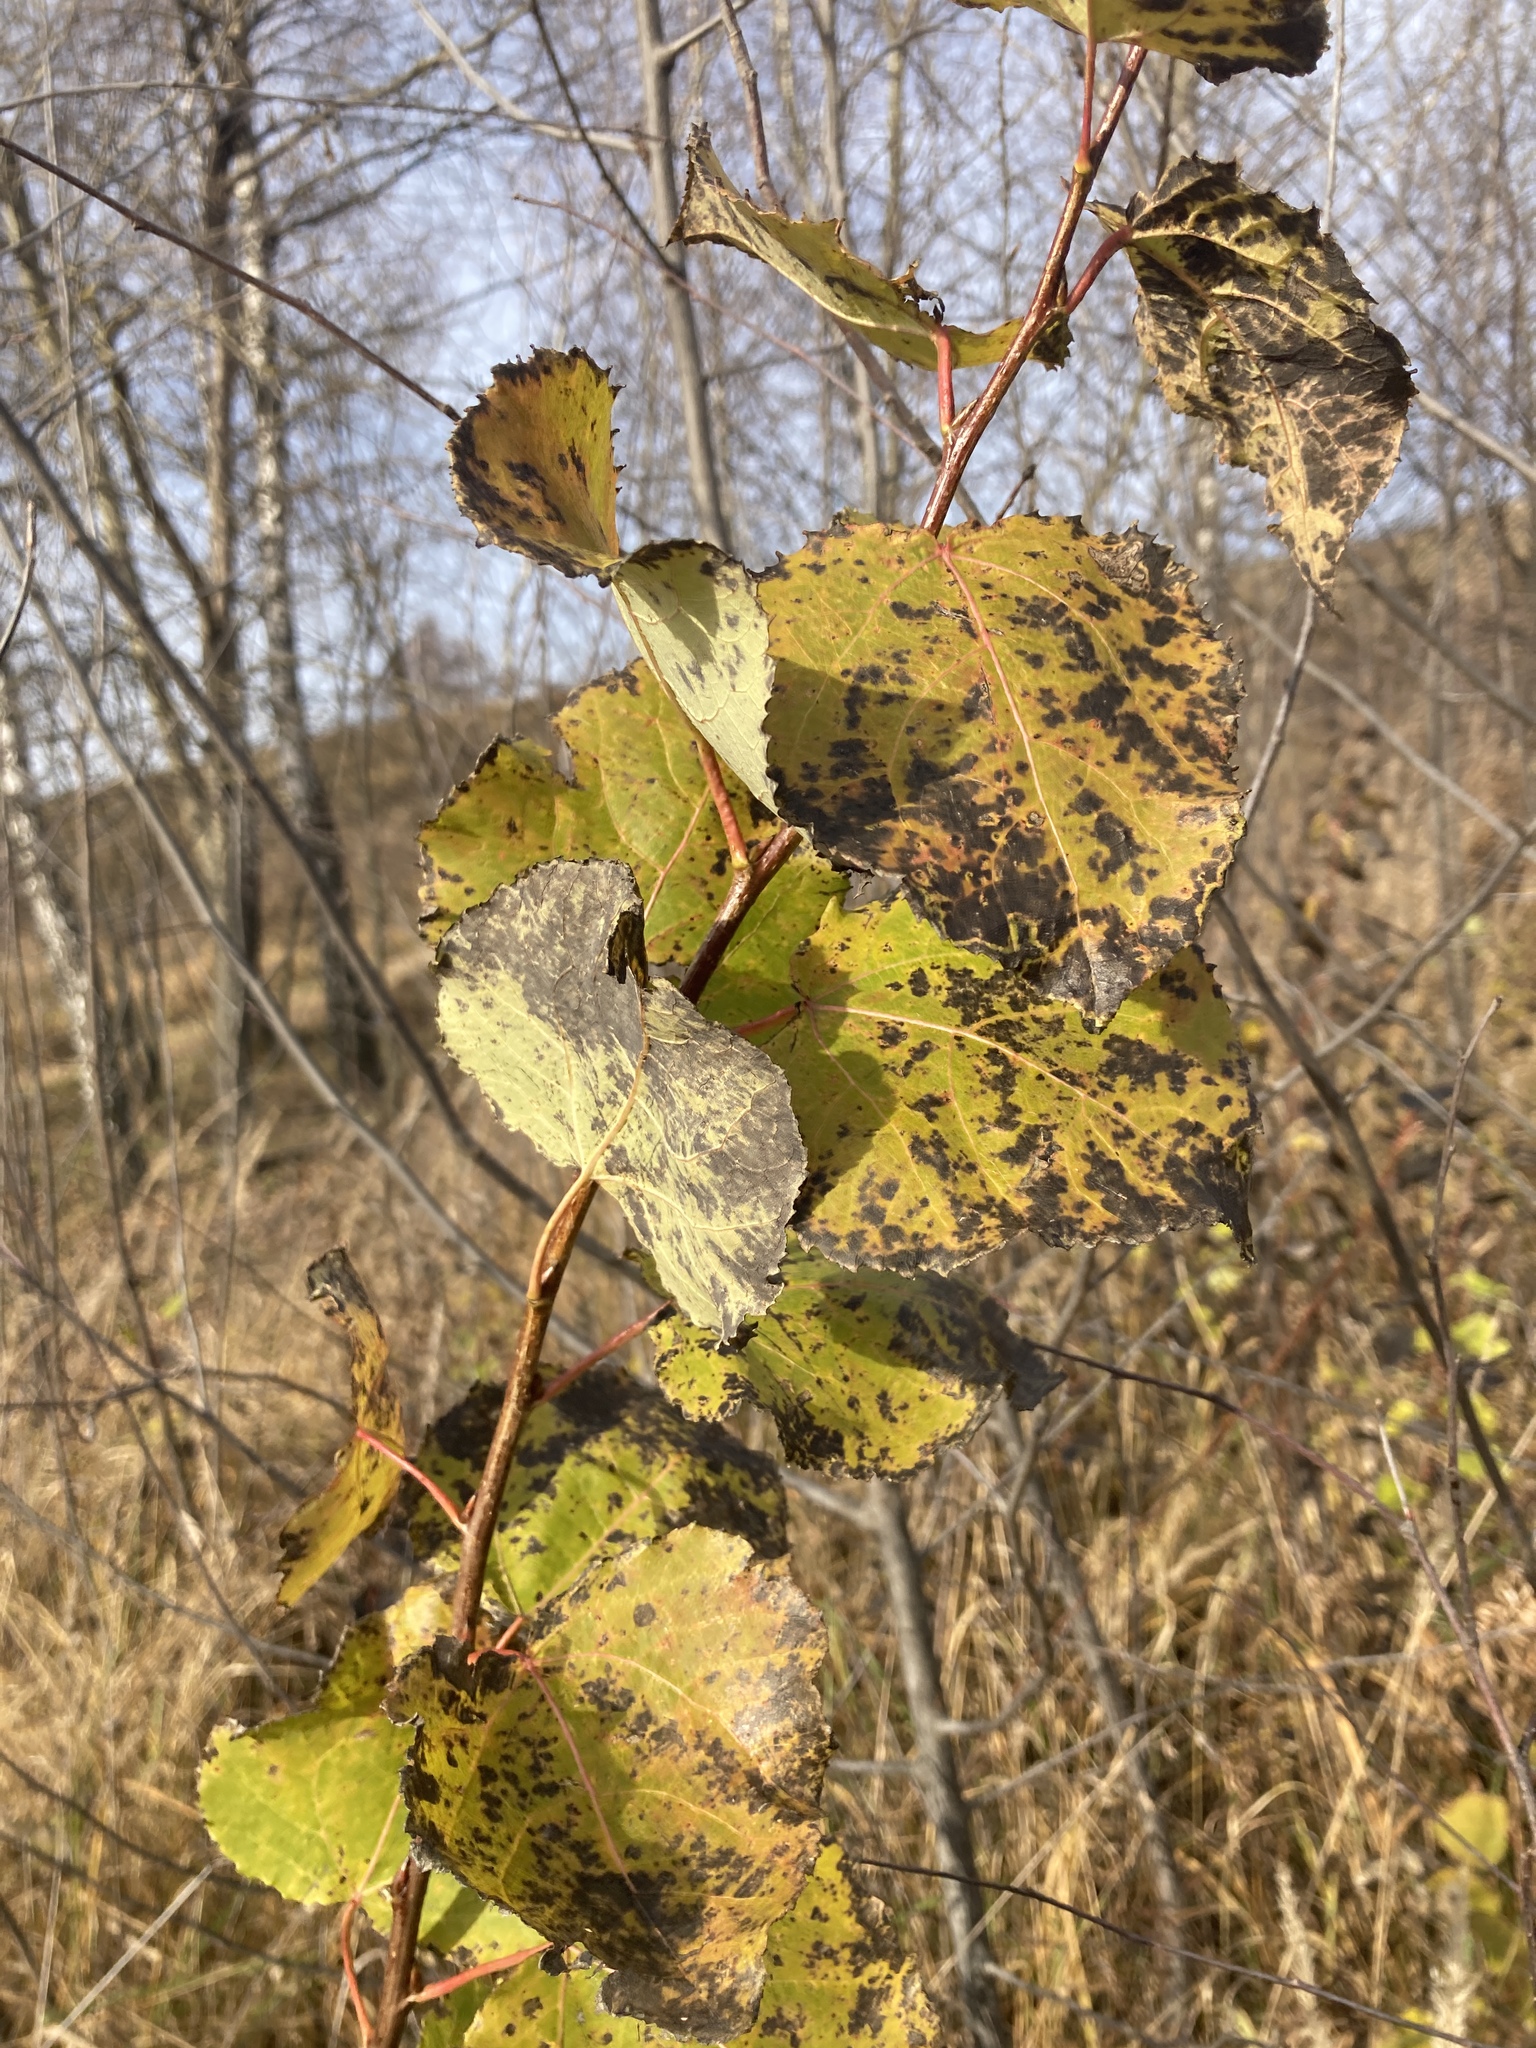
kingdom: Plantae
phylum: Tracheophyta
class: Magnoliopsida
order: Malpighiales
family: Salicaceae
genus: Populus
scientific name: Populus tremula
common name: European aspen
